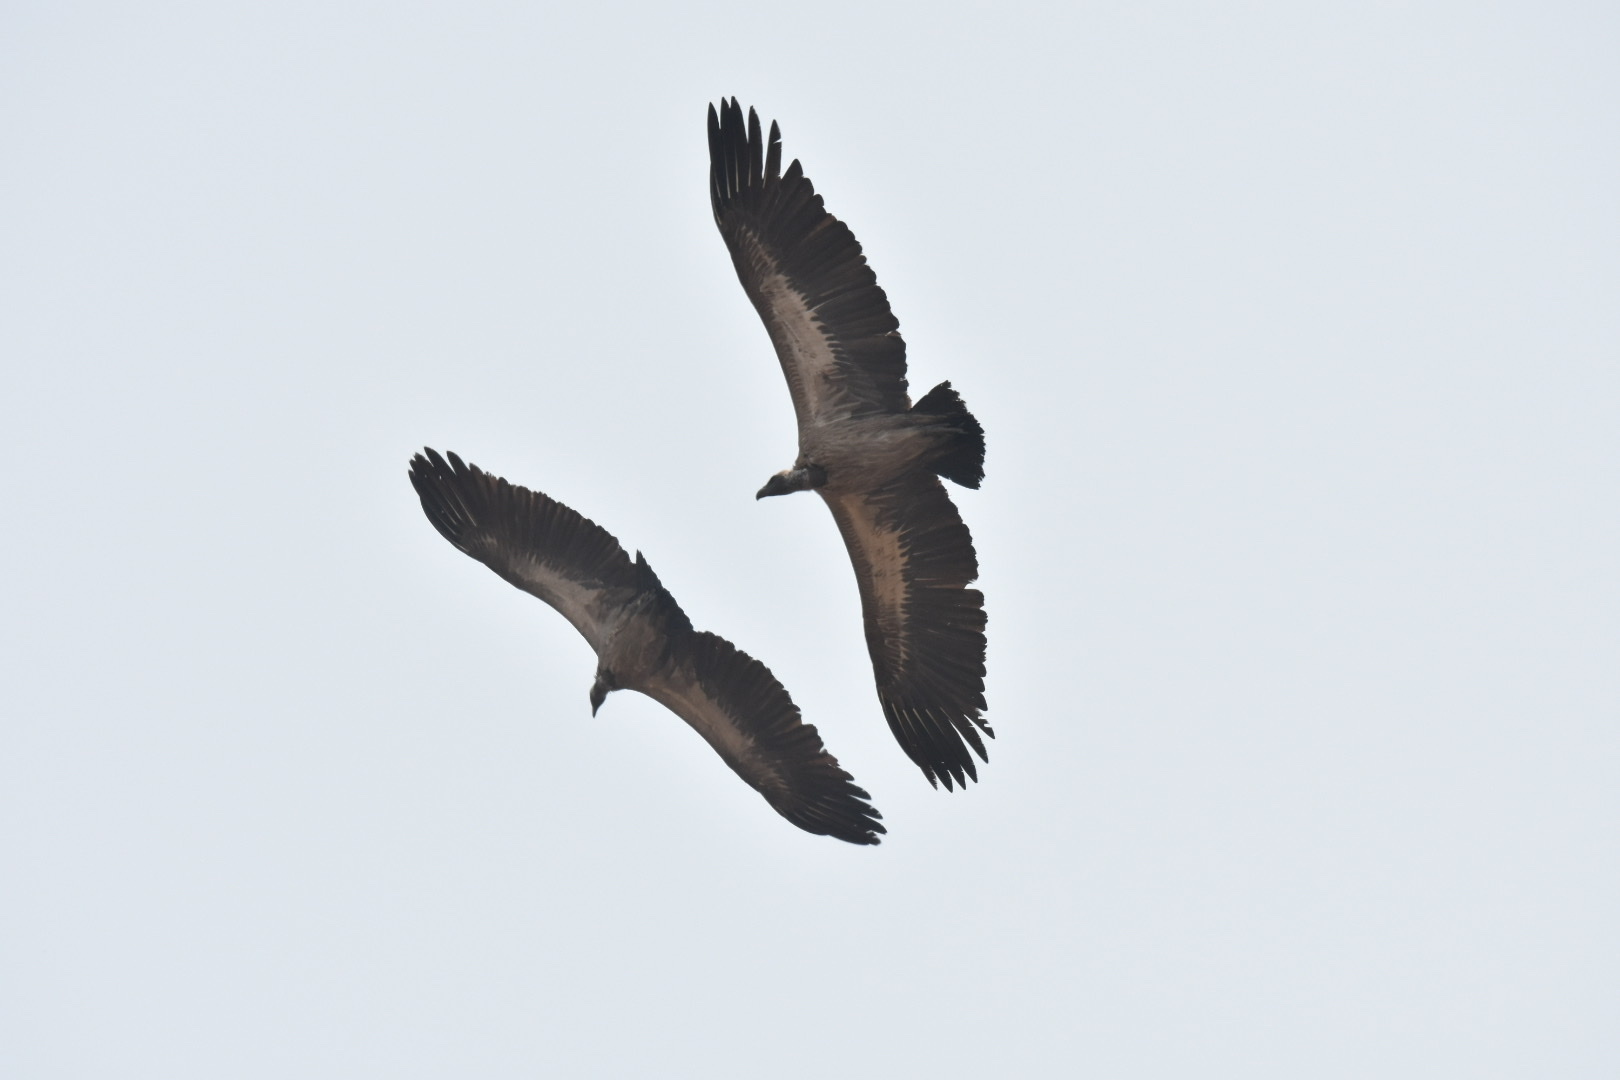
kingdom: Animalia
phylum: Chordata
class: Aves
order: Accipitriformes
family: Accipitridae
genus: Gyps
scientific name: Gyps africanus
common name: White-backed vulture
